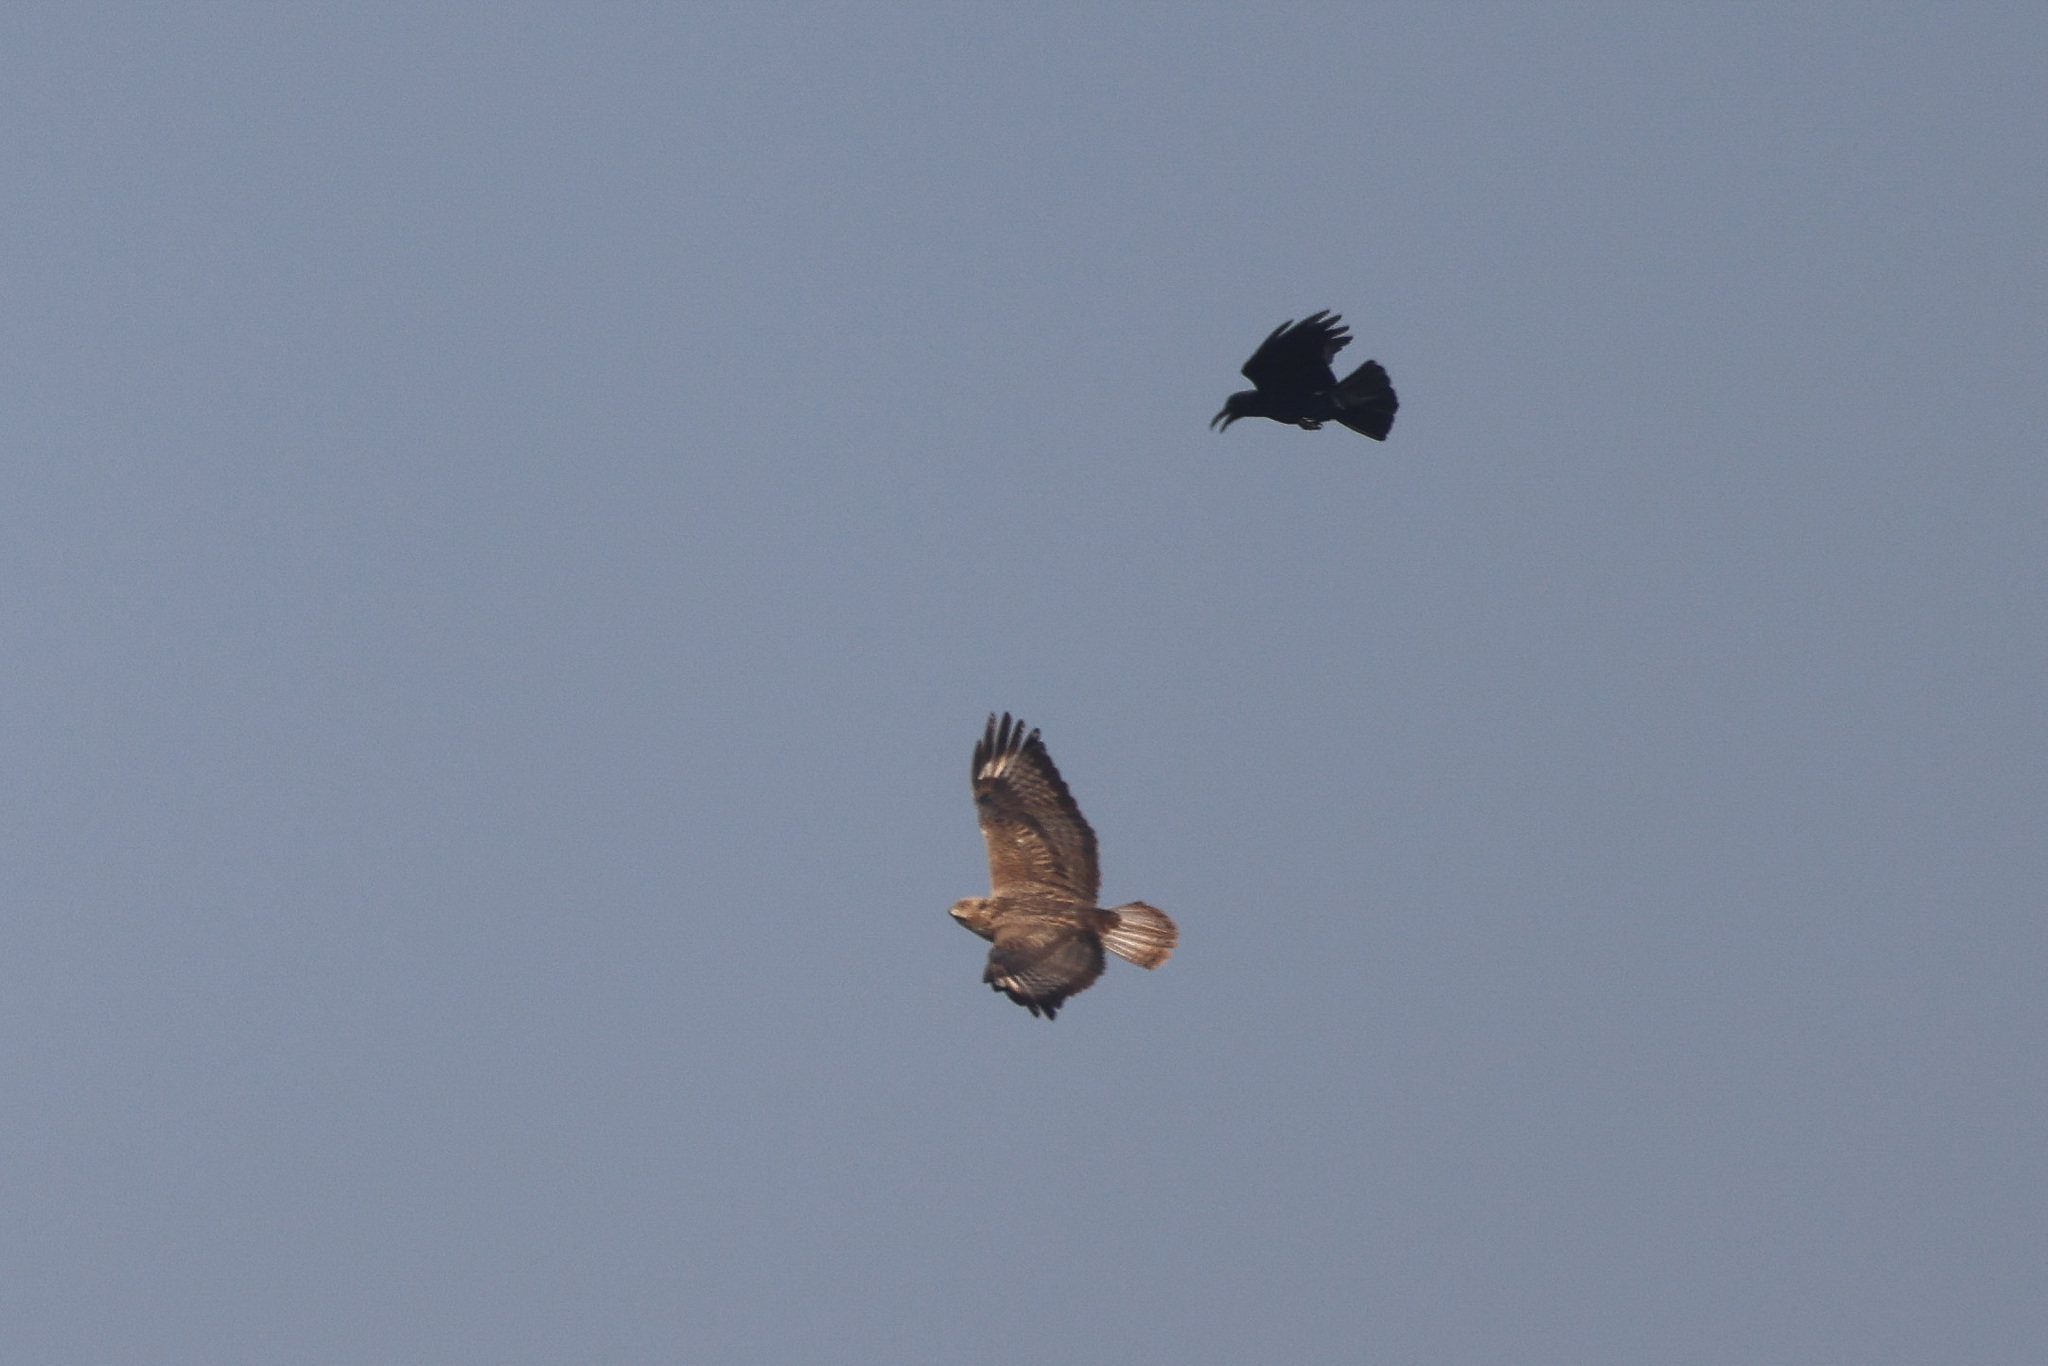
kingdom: Animalia
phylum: Chordata
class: Aves
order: Passeriformes
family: Corvidae
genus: Corvus
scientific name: Corvus macrorhynchos
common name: Large-billed crow
